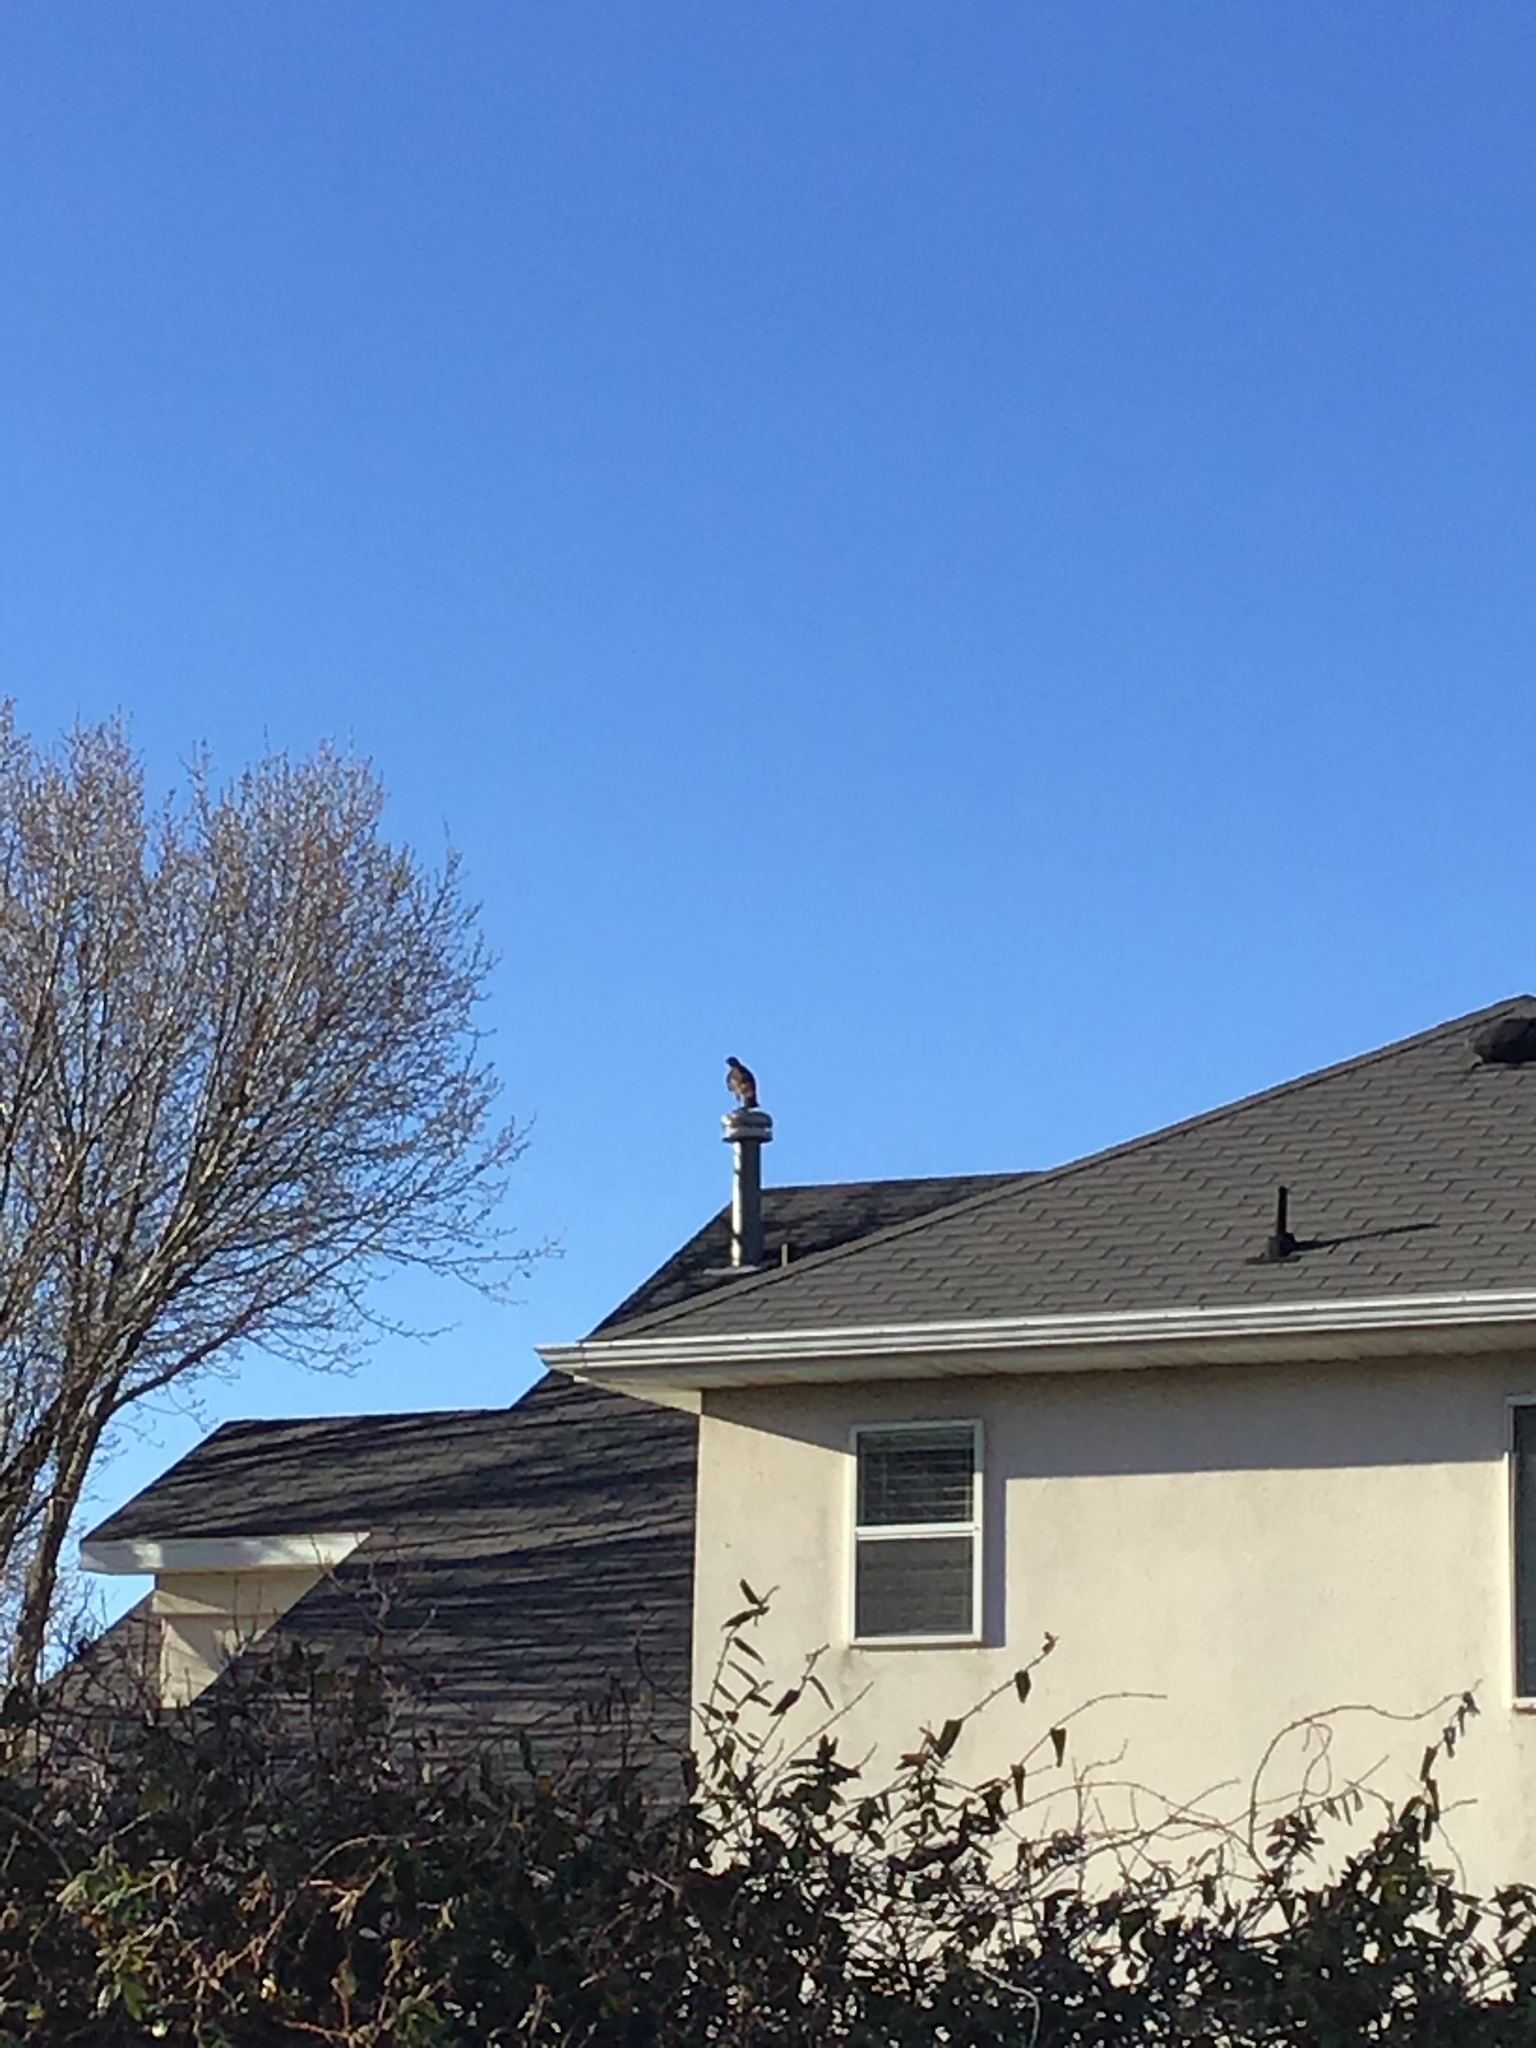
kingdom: Animalia
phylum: Chordata
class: Aves
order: Accipitriformes
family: Accipitridae
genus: Buteo
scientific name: Buteo jamaicensis
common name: Red-tailed hawk
